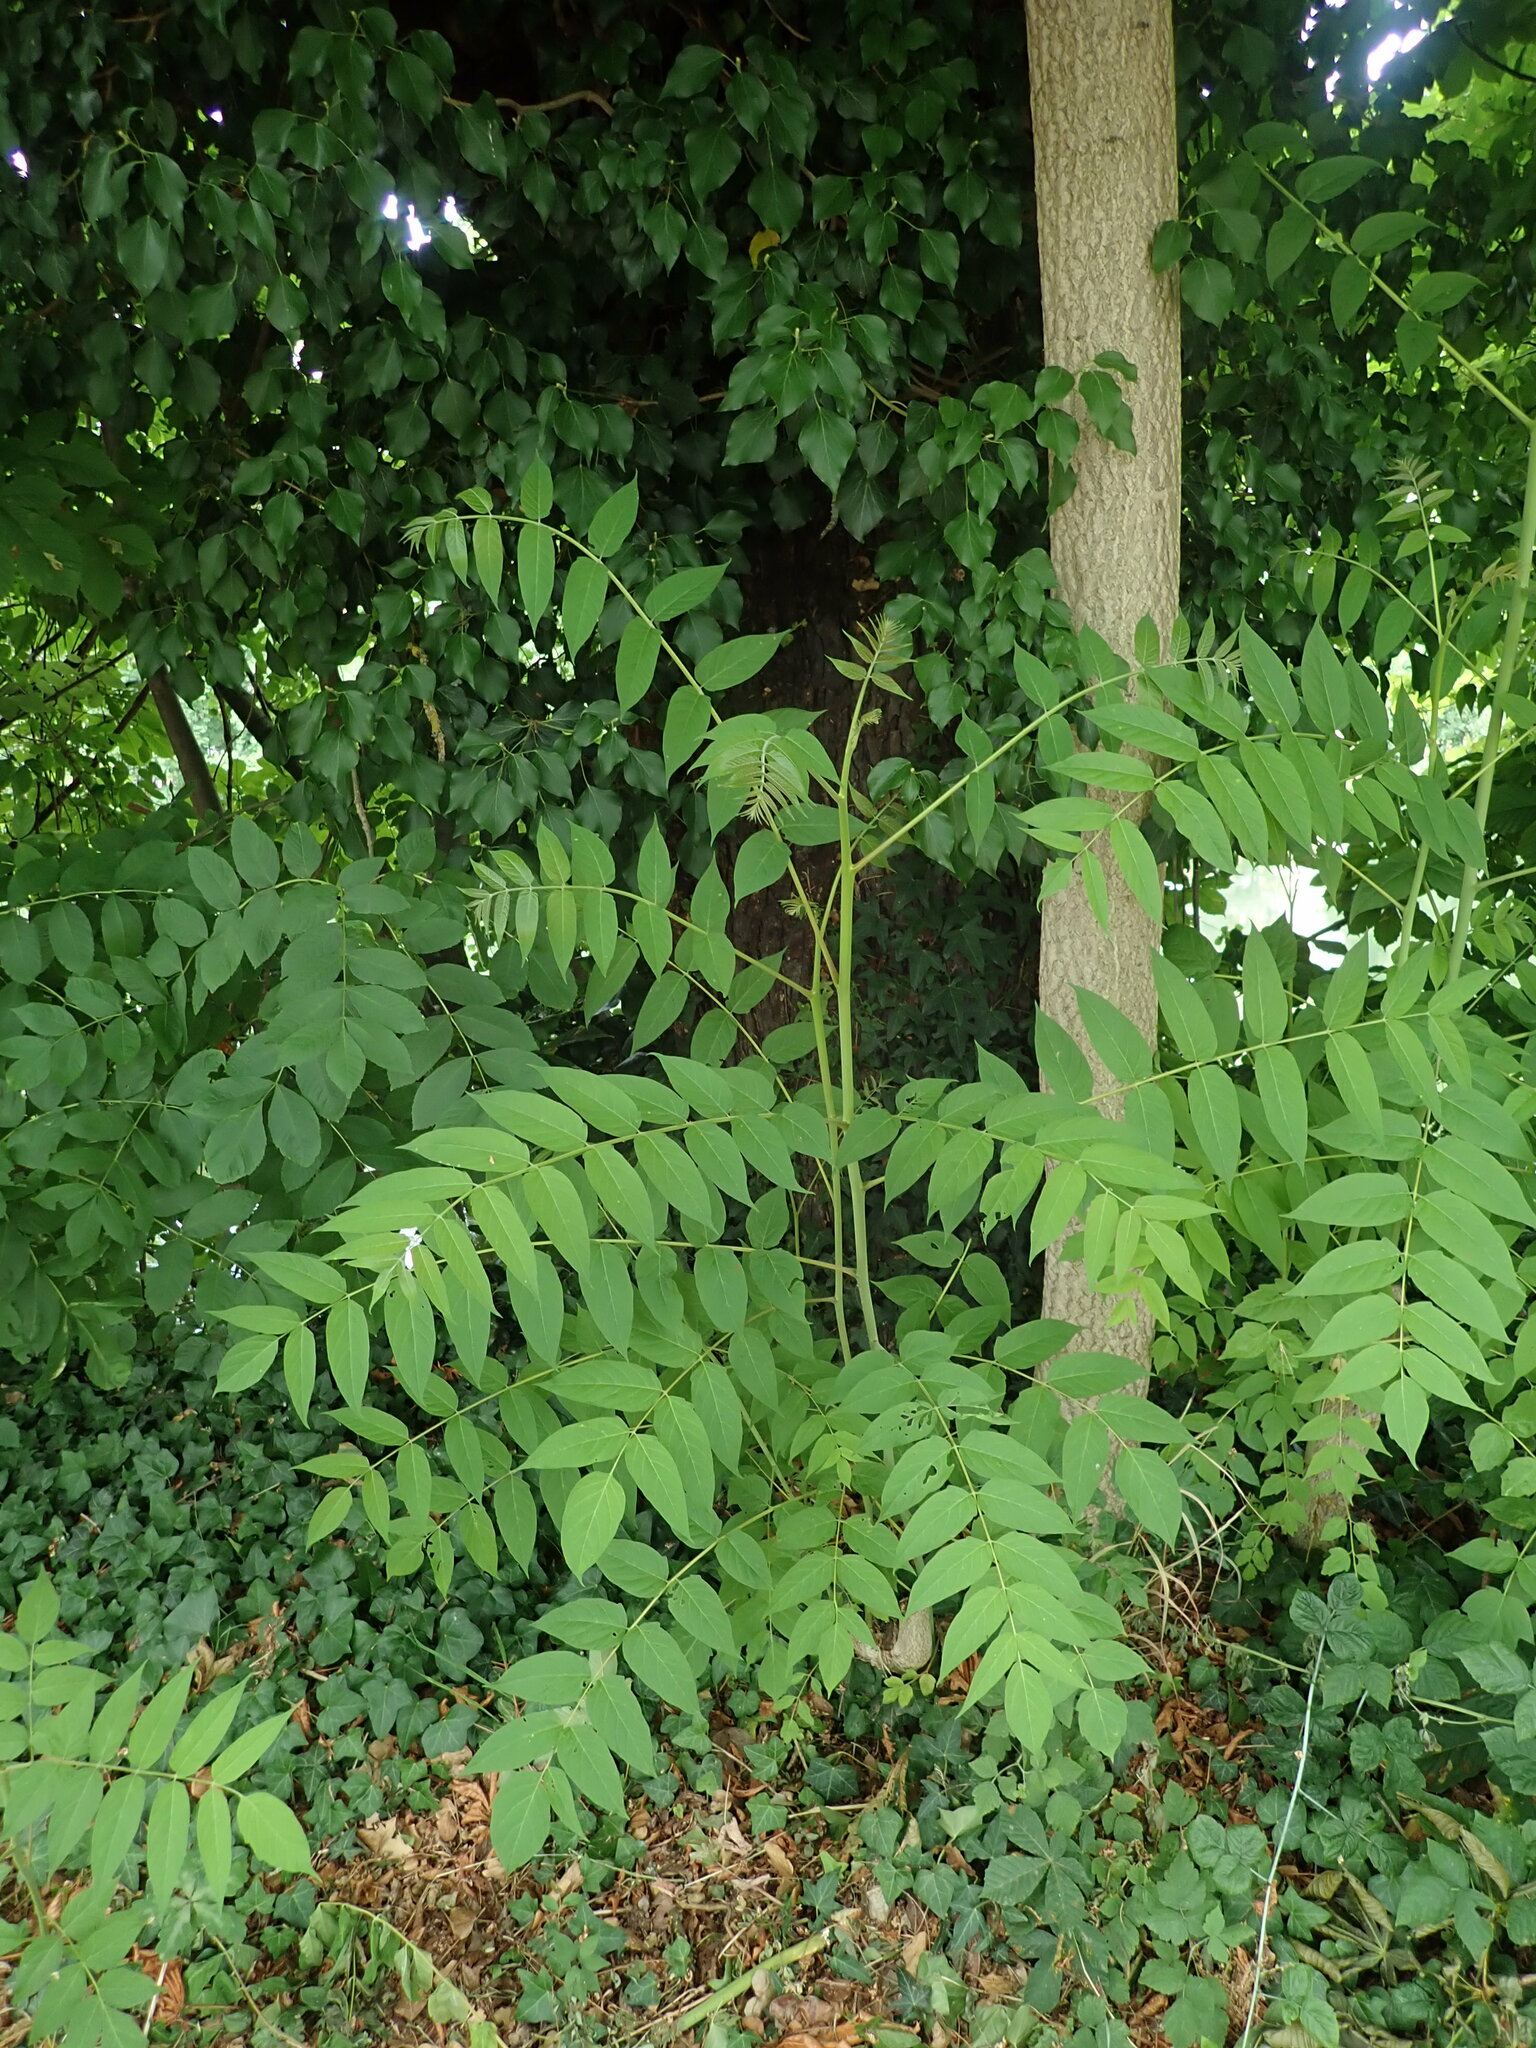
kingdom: Plantae
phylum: Tracheophyta
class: Magnoliopsida
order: Sapindales
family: Simaroubaceae
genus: Ailanthus
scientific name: Ailanthus altissima
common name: Tree-of-heaven
